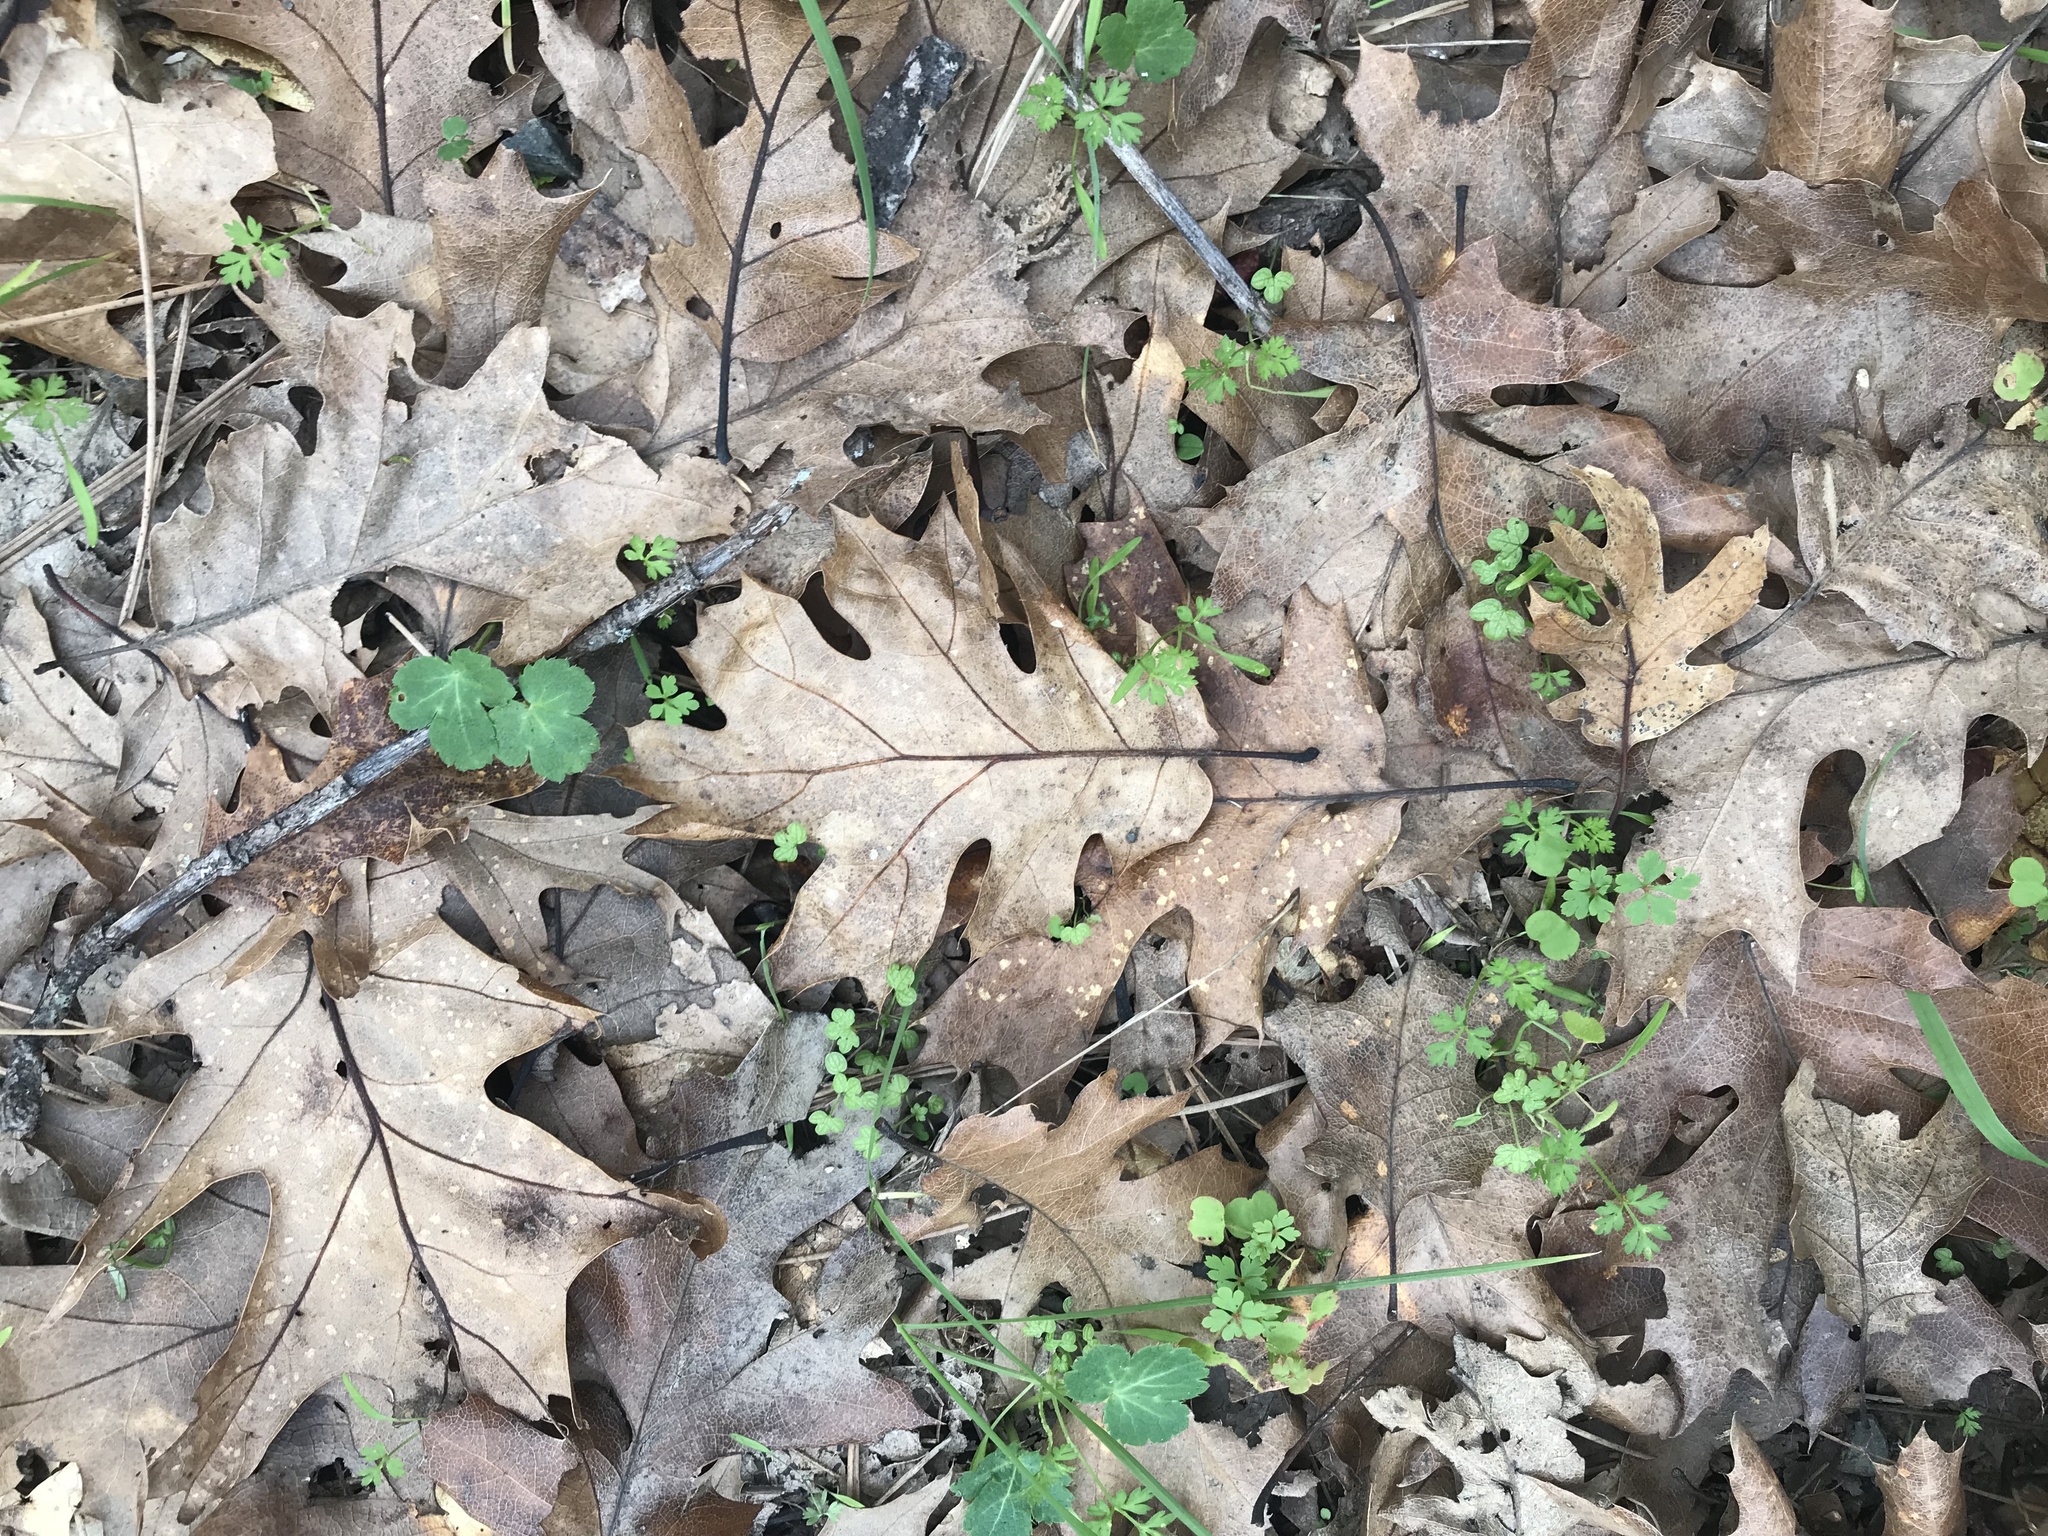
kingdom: Plantae
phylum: Tracheophyta
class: Magnoliopsida
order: Fagales
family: Fagaceae
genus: Quercus
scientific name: Quercus kelloggii
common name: California black oak
